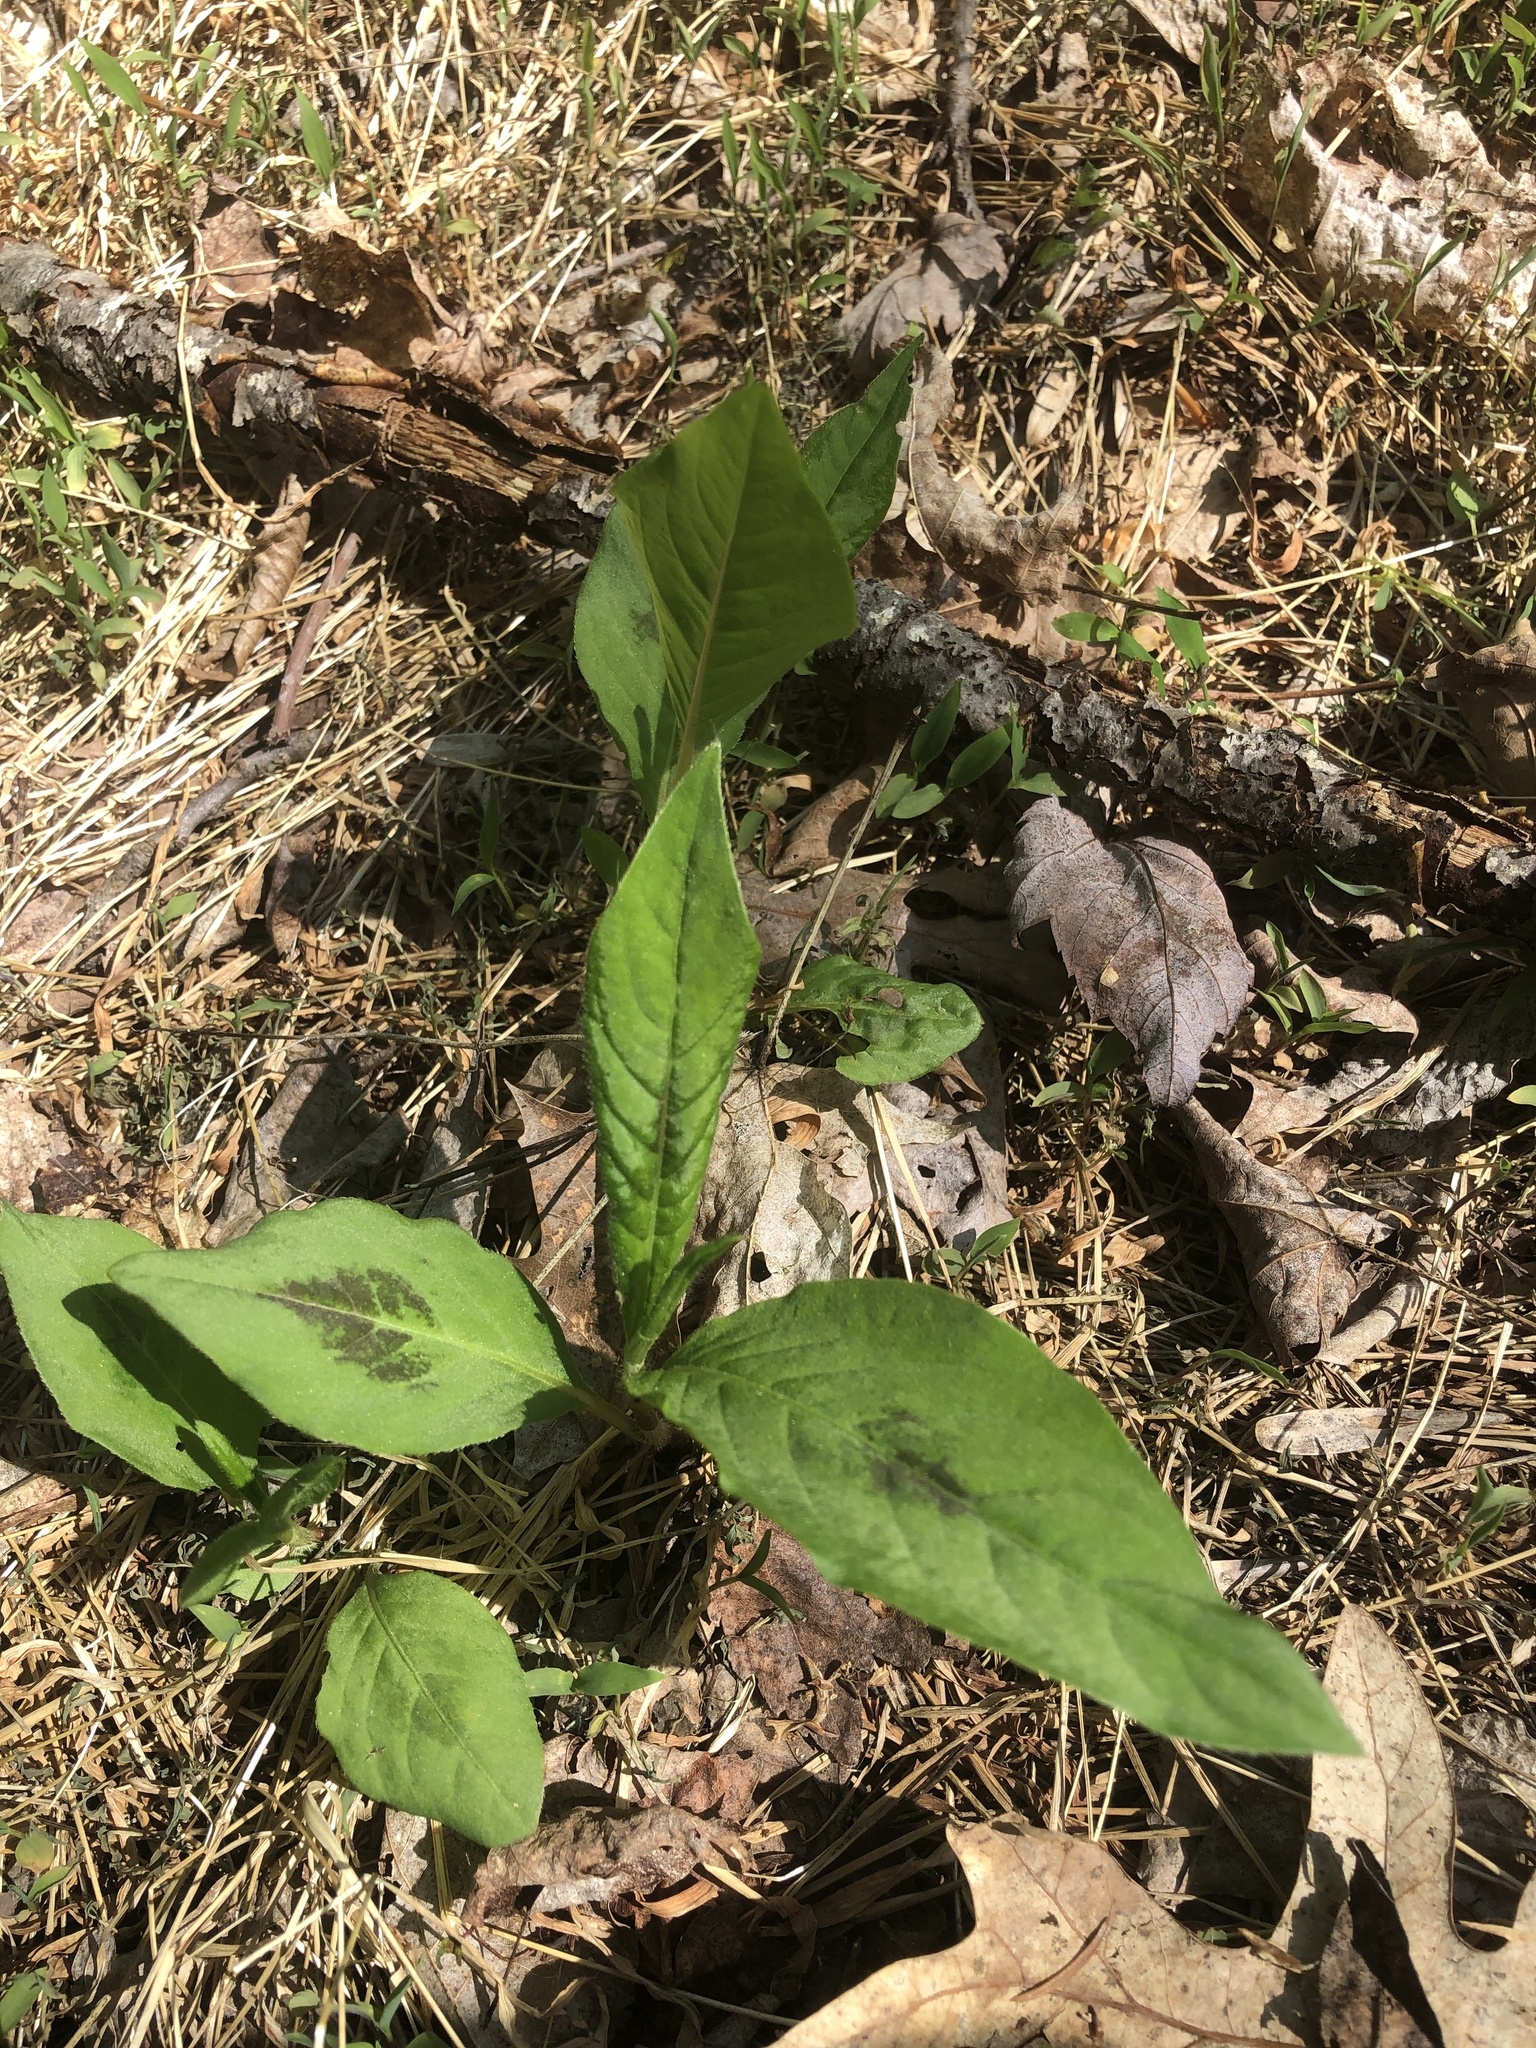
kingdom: Plantae
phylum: Tracheophyta
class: Magnoliopsida
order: Caryophyllales
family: Polygonaceae
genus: Persicaria
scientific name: Persicaria virginiana
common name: Jumpseed
